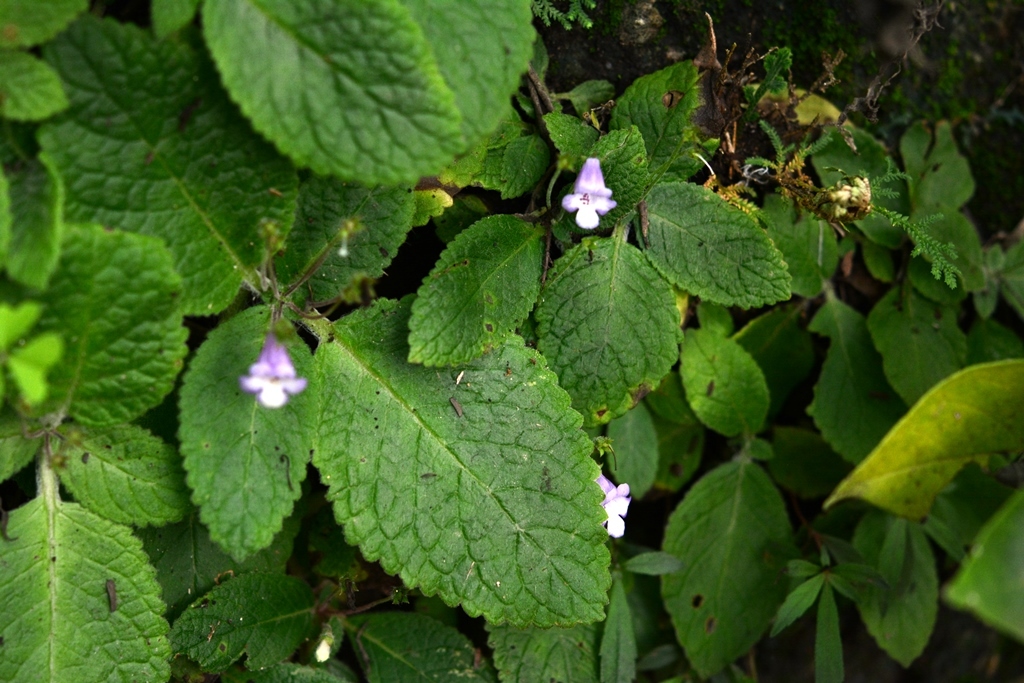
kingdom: Plantae
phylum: Tracheophyta
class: Magnoliopsida
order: Lamiales
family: Gesneriaceae
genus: Eucodonia
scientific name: Eucodonia andrieuxii
